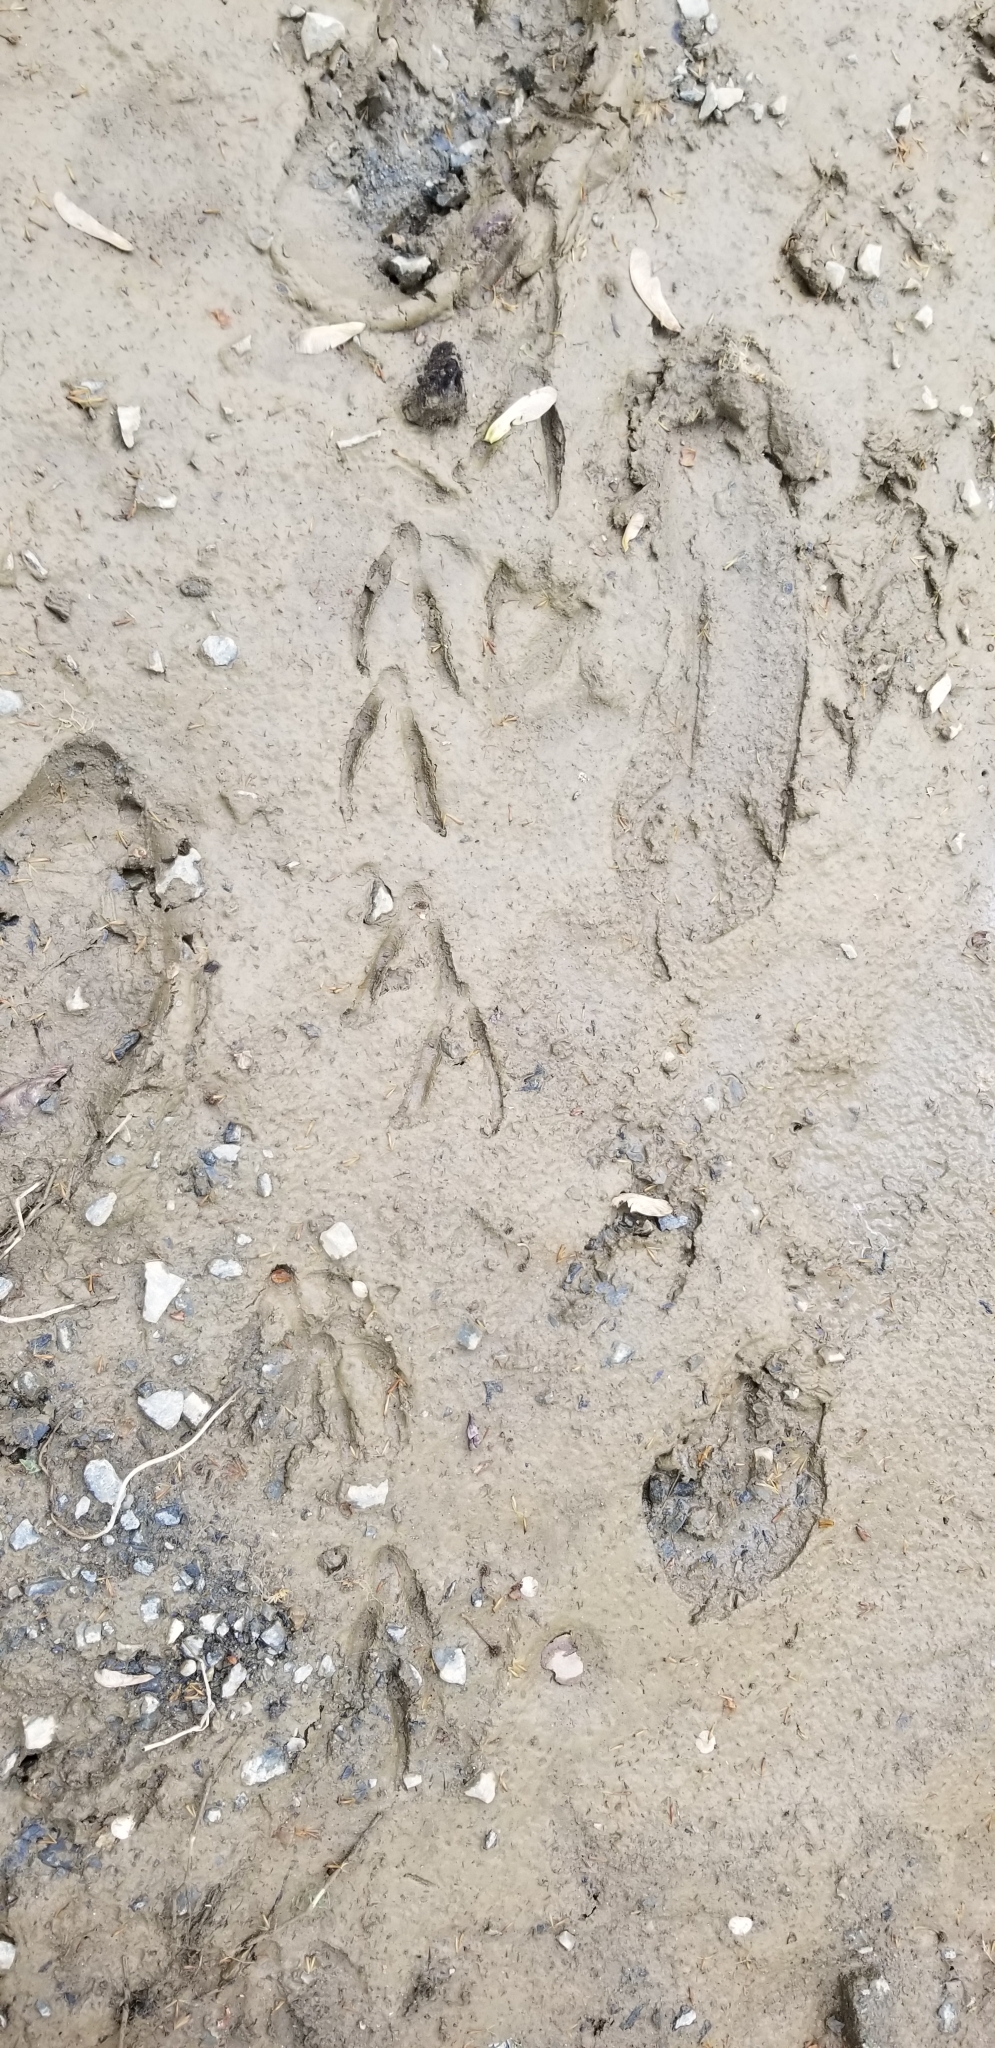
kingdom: Animalia
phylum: Chordata
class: Mammalia
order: Artiodactyla
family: Cervidae
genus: Odocoileus
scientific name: Odocoileus virginianus
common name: White-tailed deer
